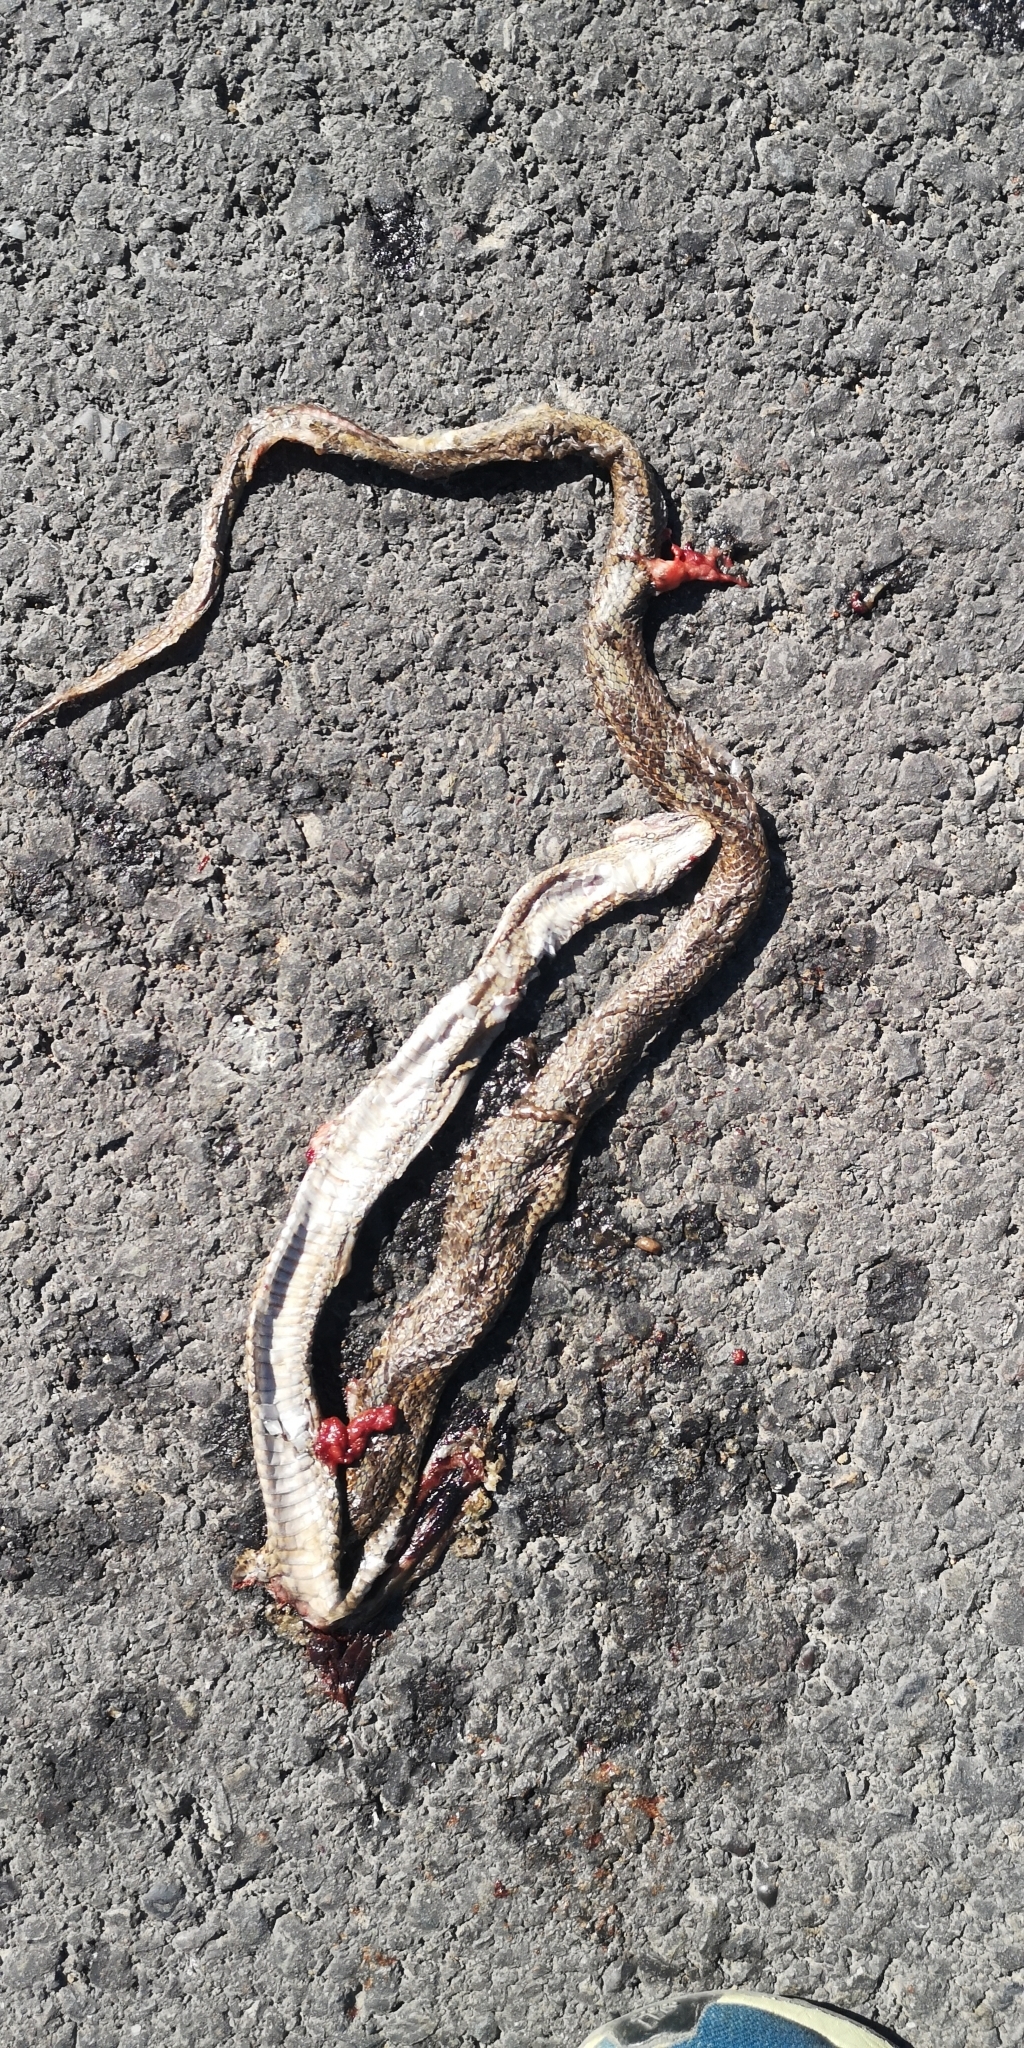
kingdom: Animalia
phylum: Chordata
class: Squamata
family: Colubridae
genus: Philodryas
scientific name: Philodryas chamissonis
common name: Chilean green racer
